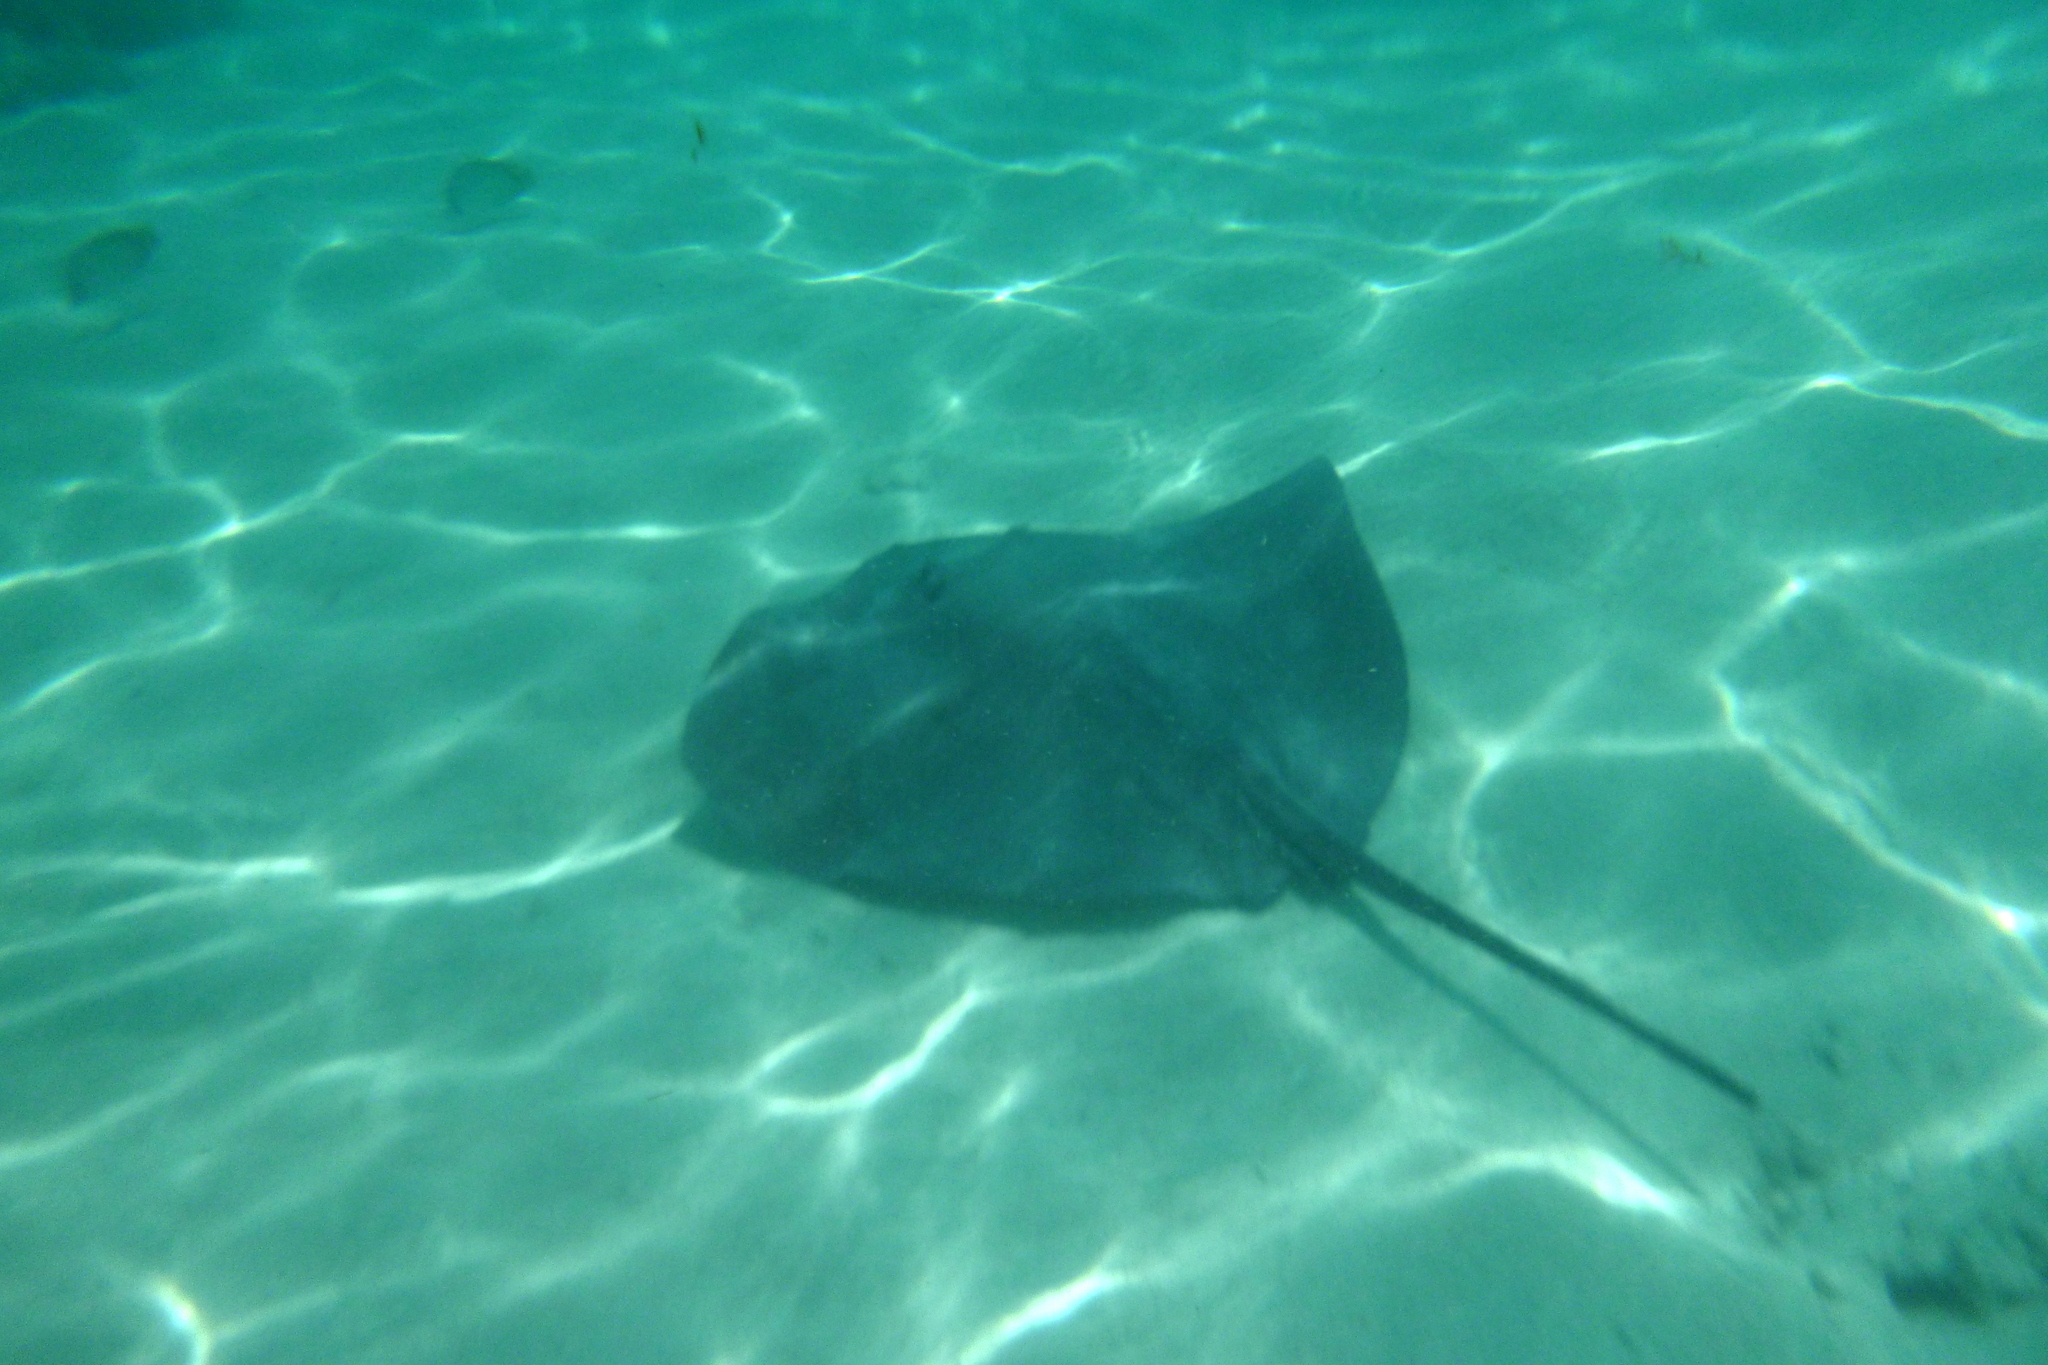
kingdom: Animalia
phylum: Chordata
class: Elasmobranchii
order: Myliobatiformes
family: Dasyatidae
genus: Pateobatis
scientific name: Pateobatis fai
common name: Pink whipray
